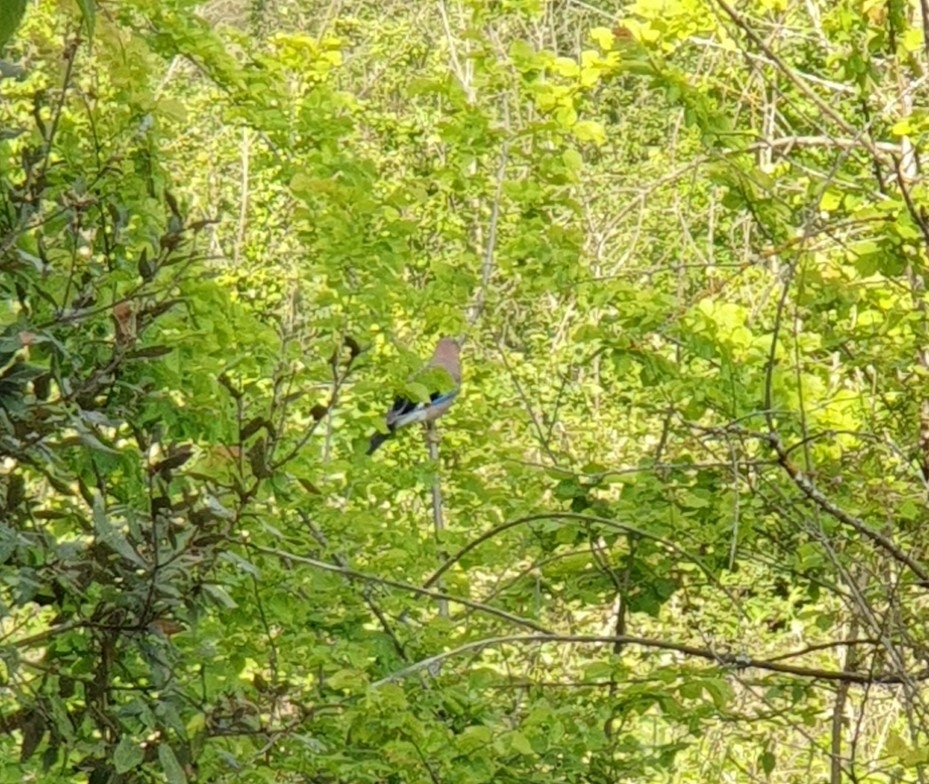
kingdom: Animalia
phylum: Chordata
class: Aves
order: Passeriformes
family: Corvidae
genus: Garrulus
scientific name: Garrulus glandarius
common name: Eurasian jay
